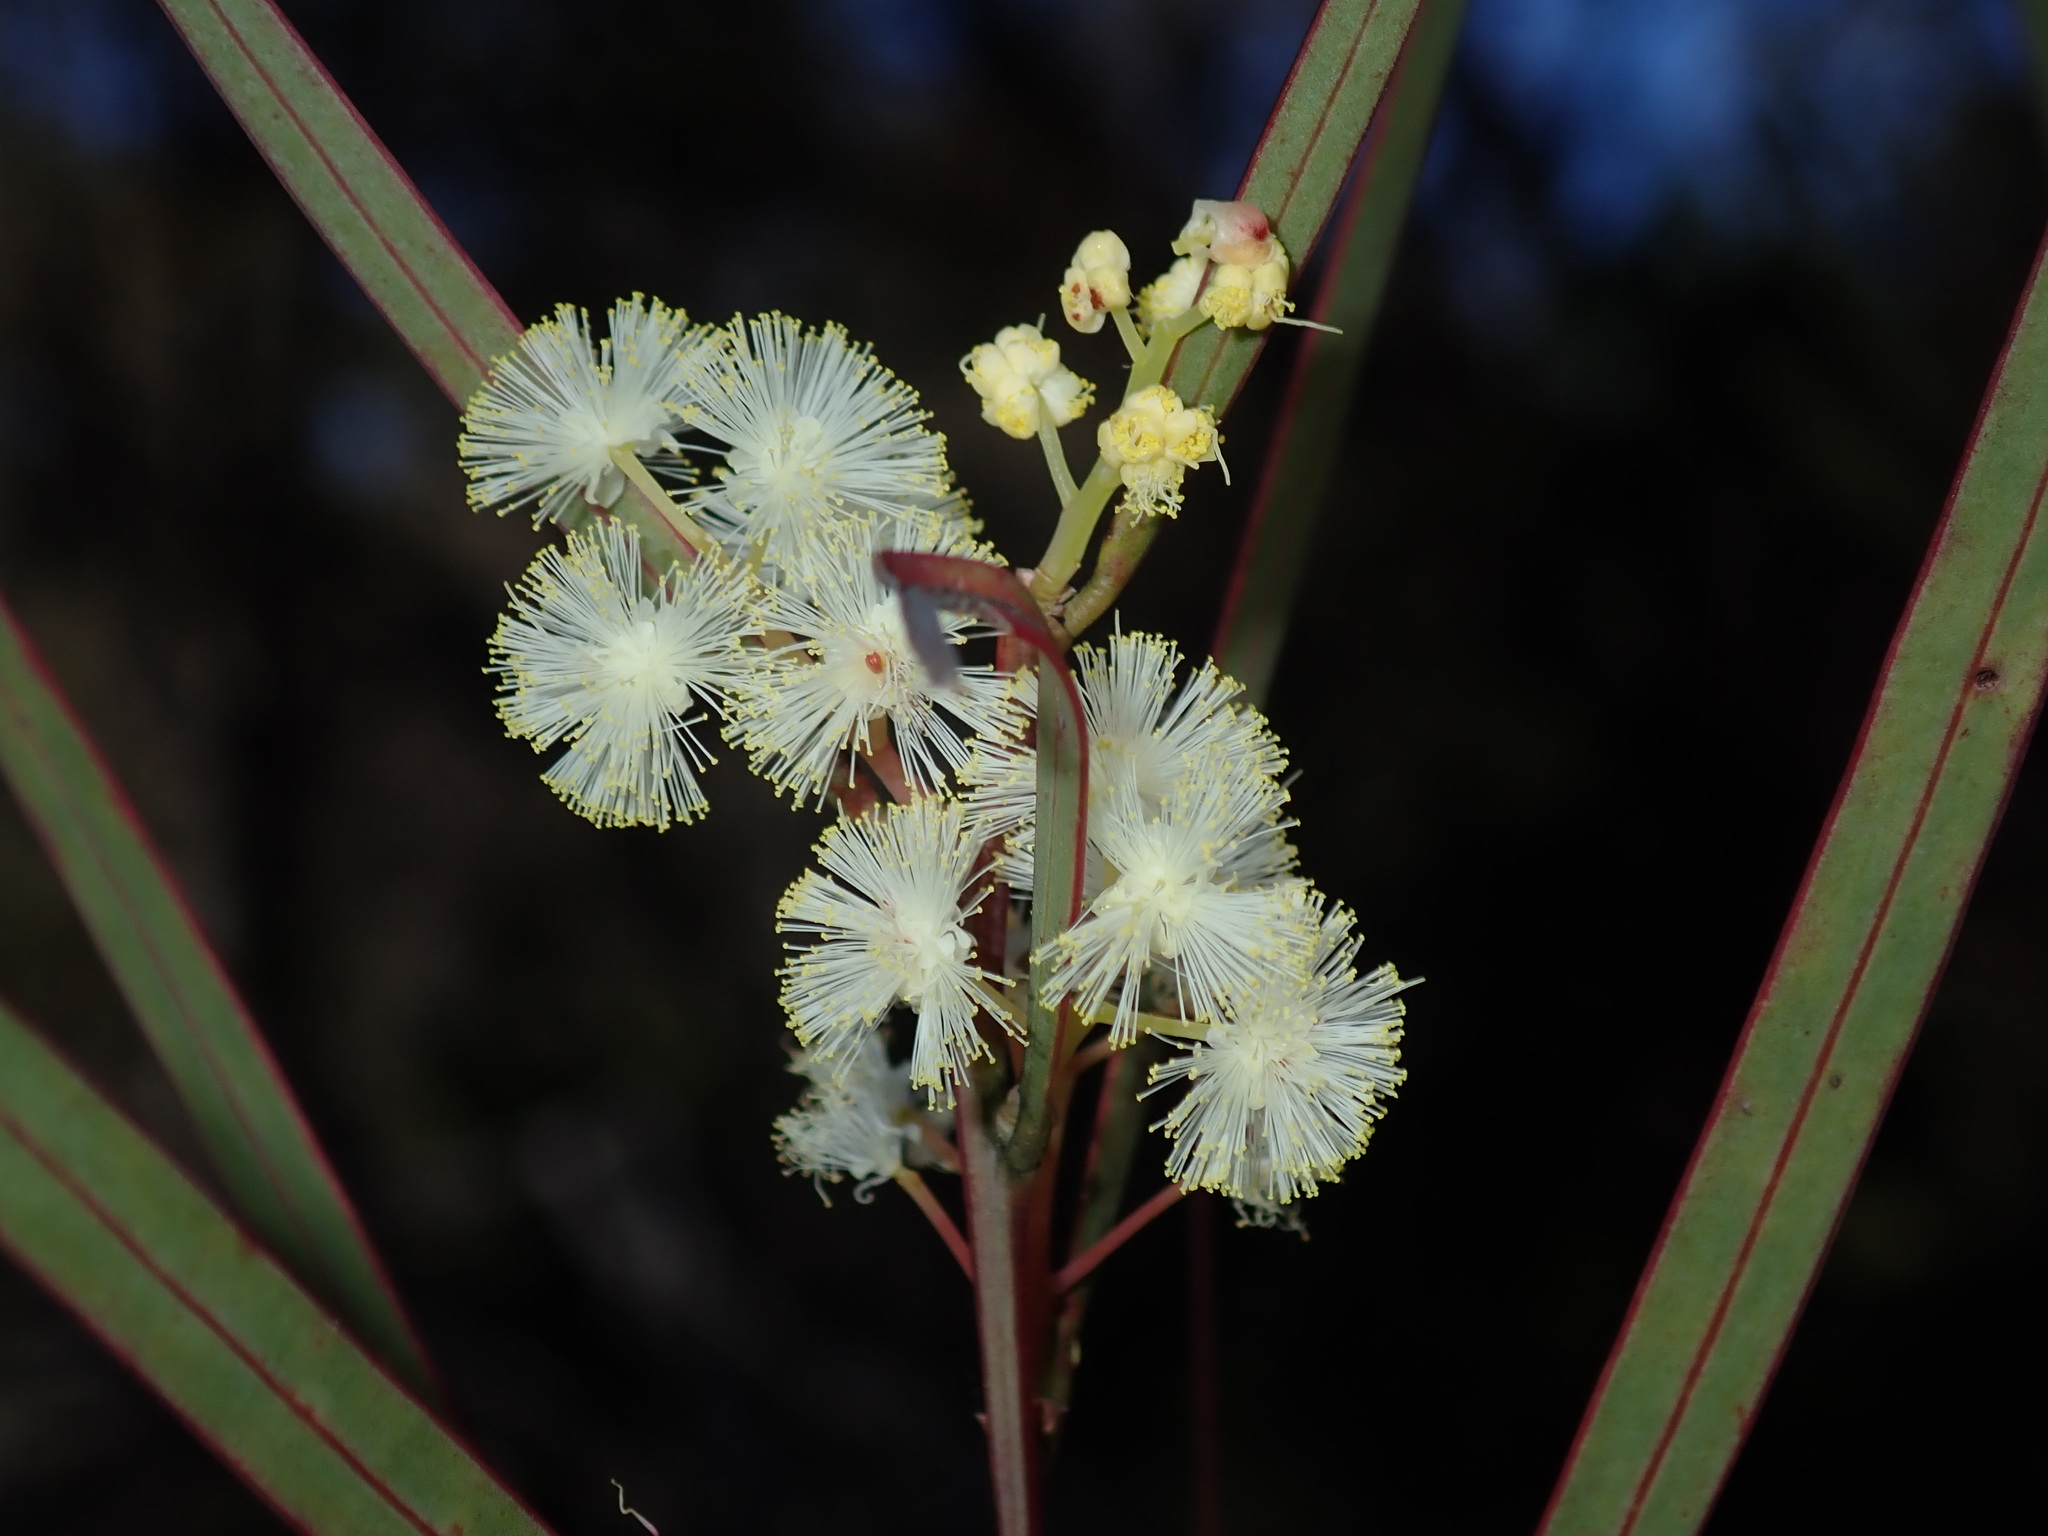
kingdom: Plantae
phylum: Tracheophyta
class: Magnoliopsida
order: Fabales
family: Fabaceae
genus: Acacia
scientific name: Acacia suaveolens
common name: Sweet acacia
